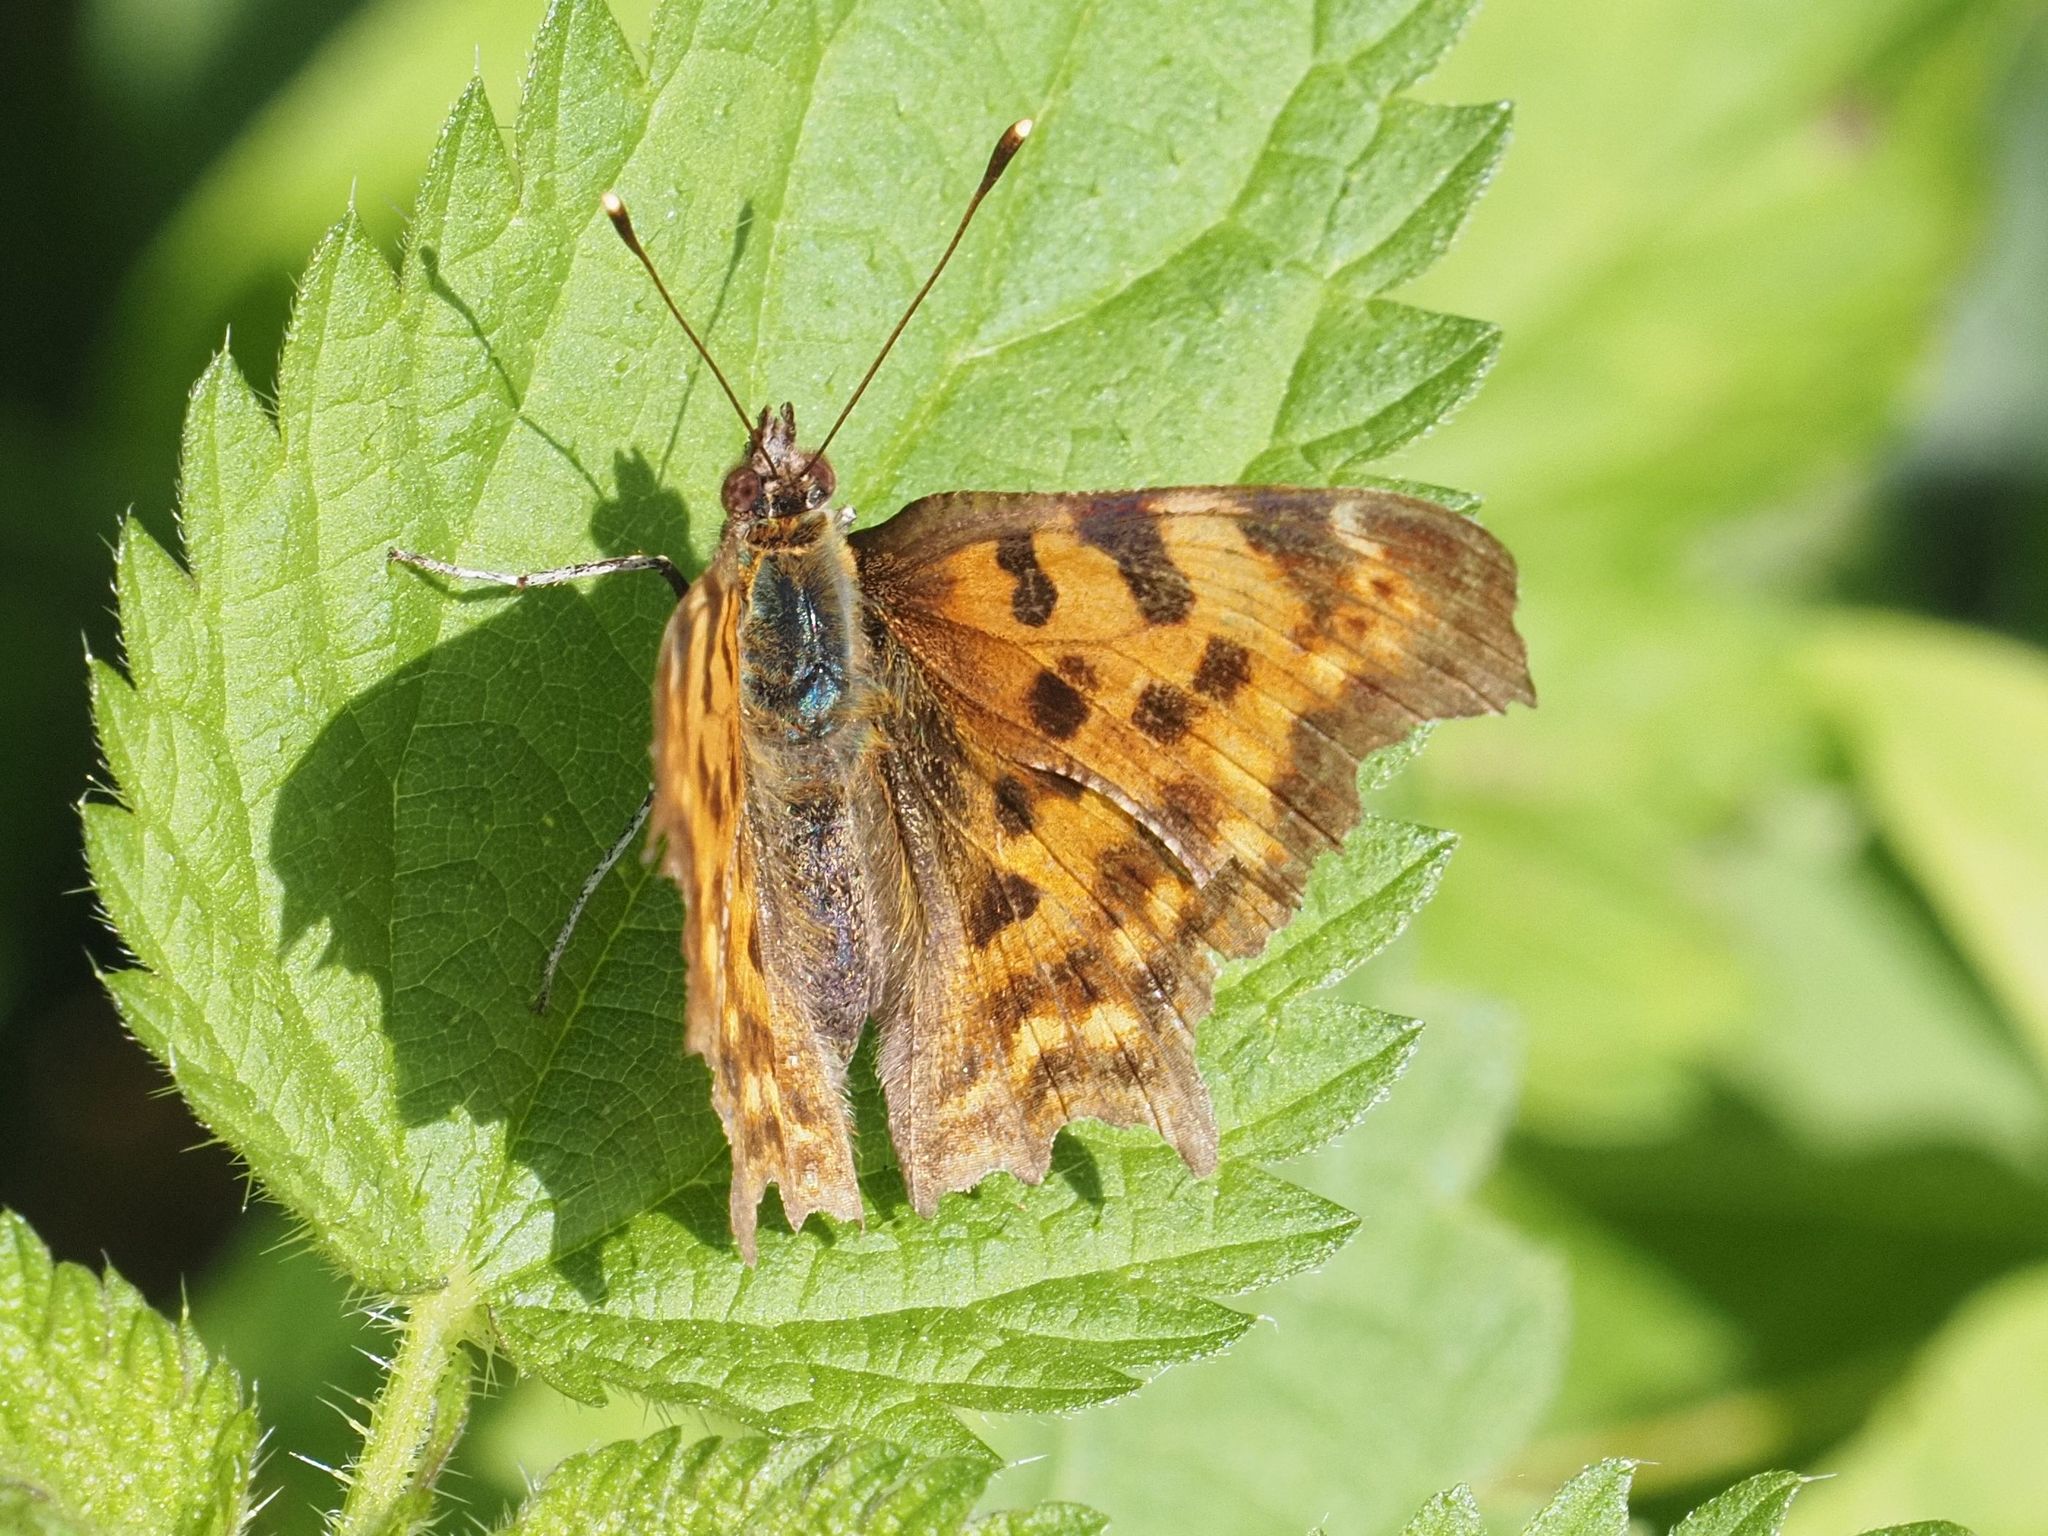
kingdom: Animalia
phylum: Arthropoda
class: Insecta
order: Lepidoptera
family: Nymphalidae
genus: Polygonia
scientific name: Polygonia c-album
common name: Comma
